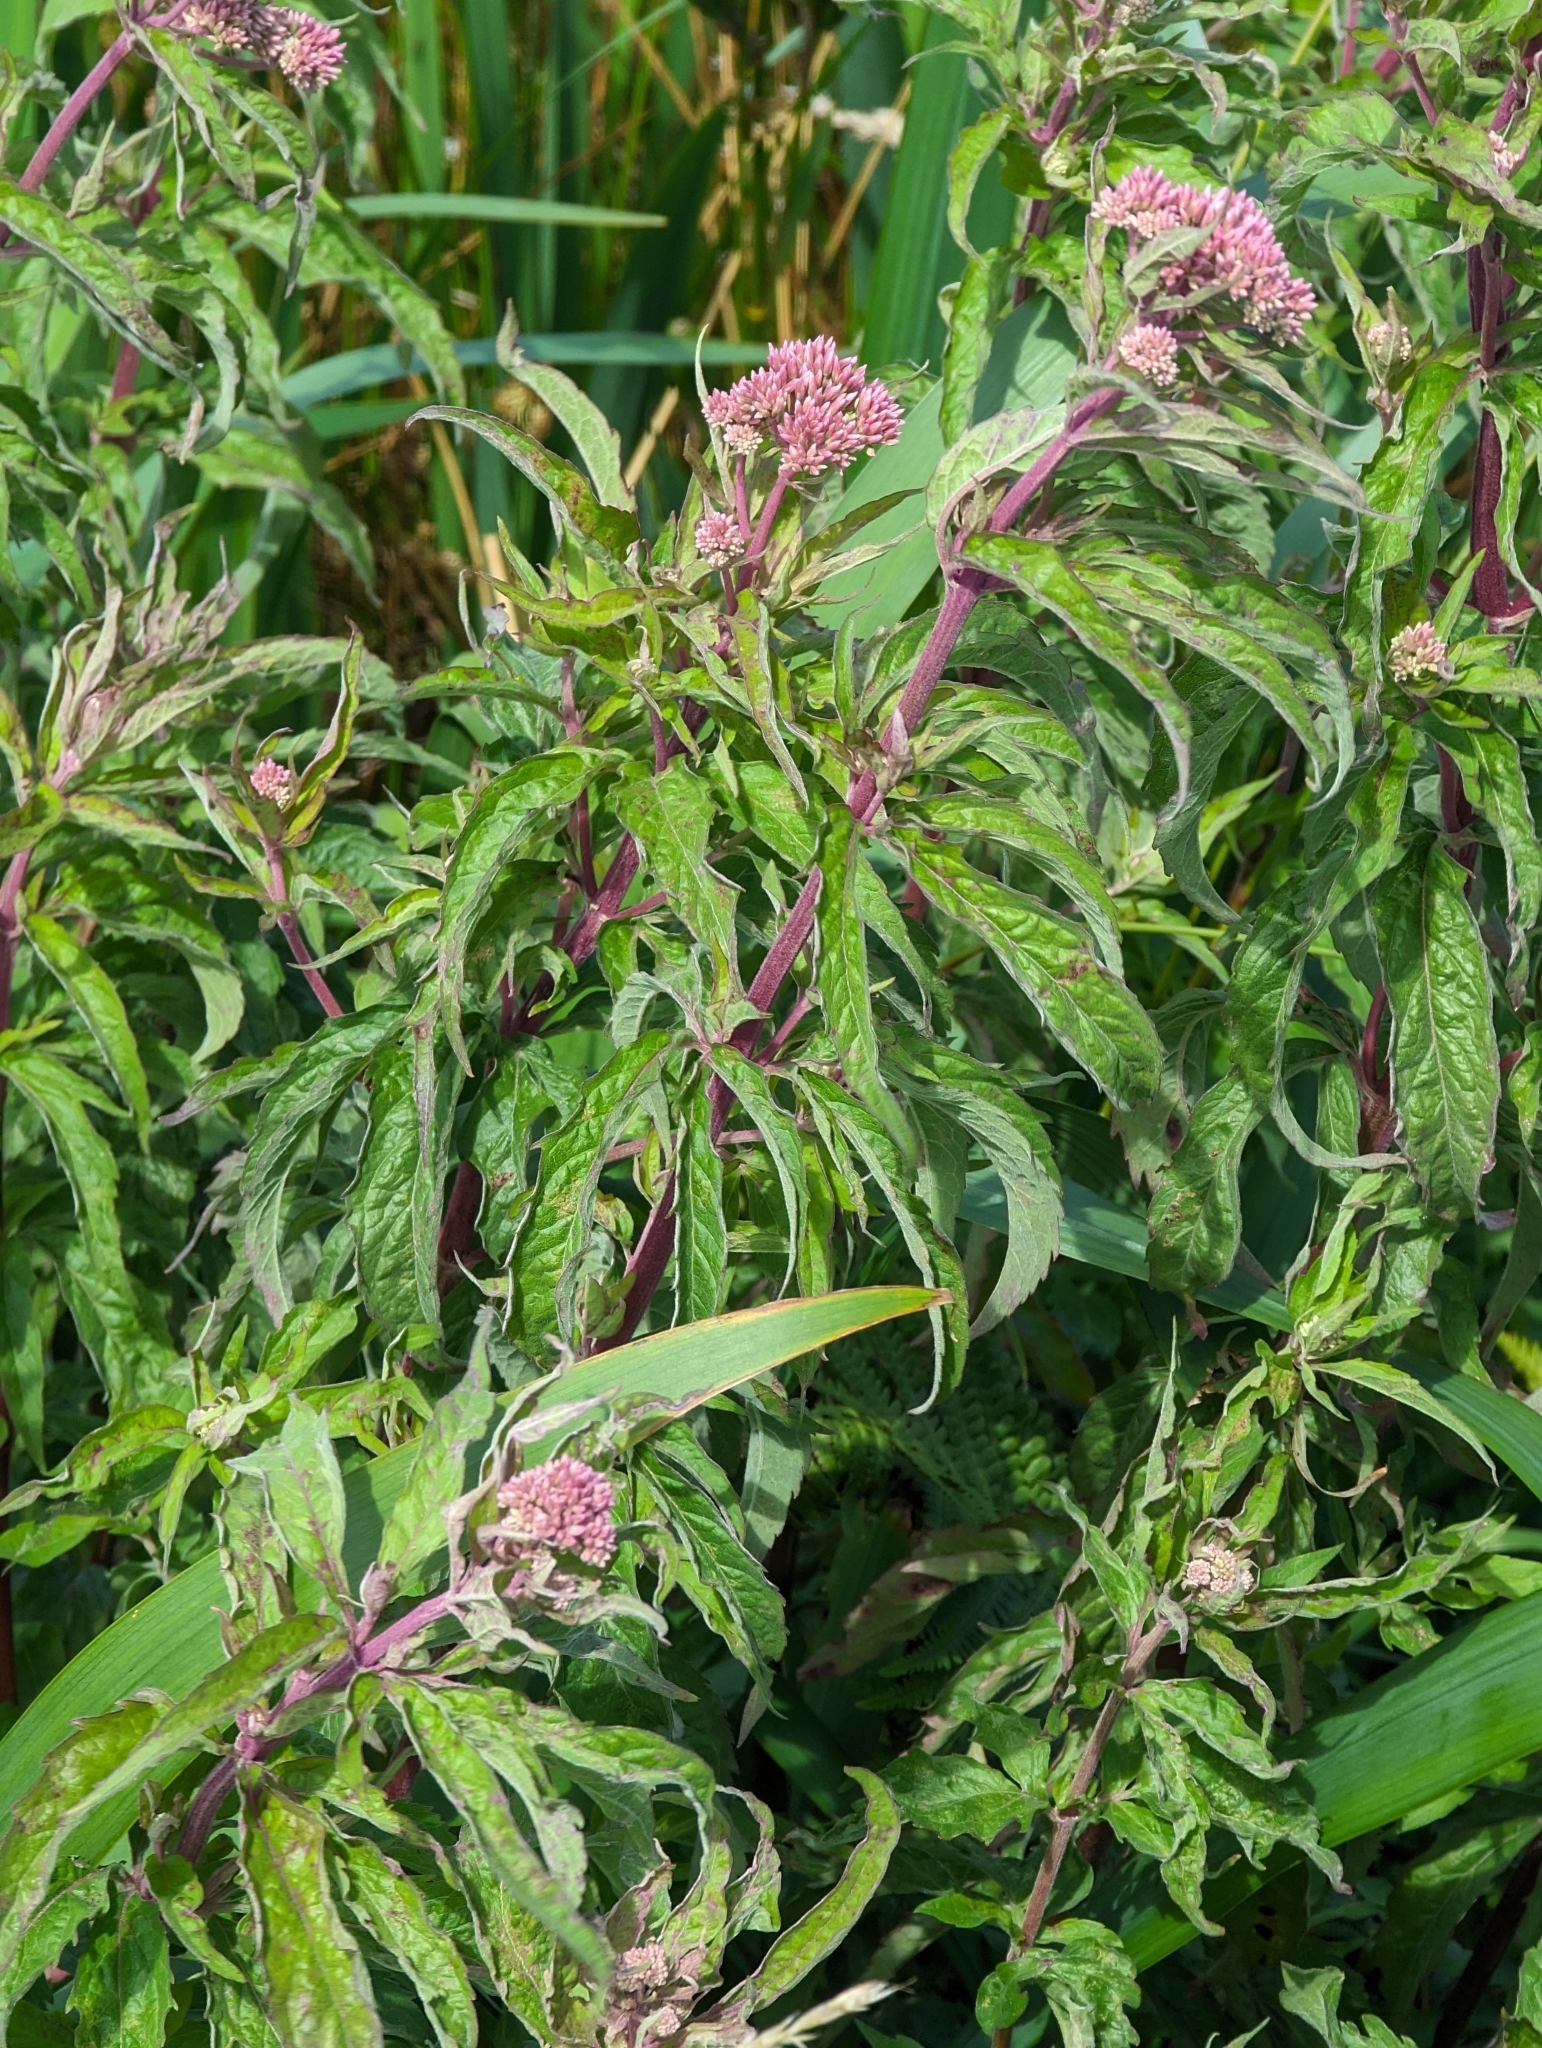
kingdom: Plantae
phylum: Tracheophyta
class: Magnoliopsida
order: Asterales
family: Asteraceae
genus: Eupatorium
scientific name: Eupatorium cannabinum
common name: Hemp-agrimony
